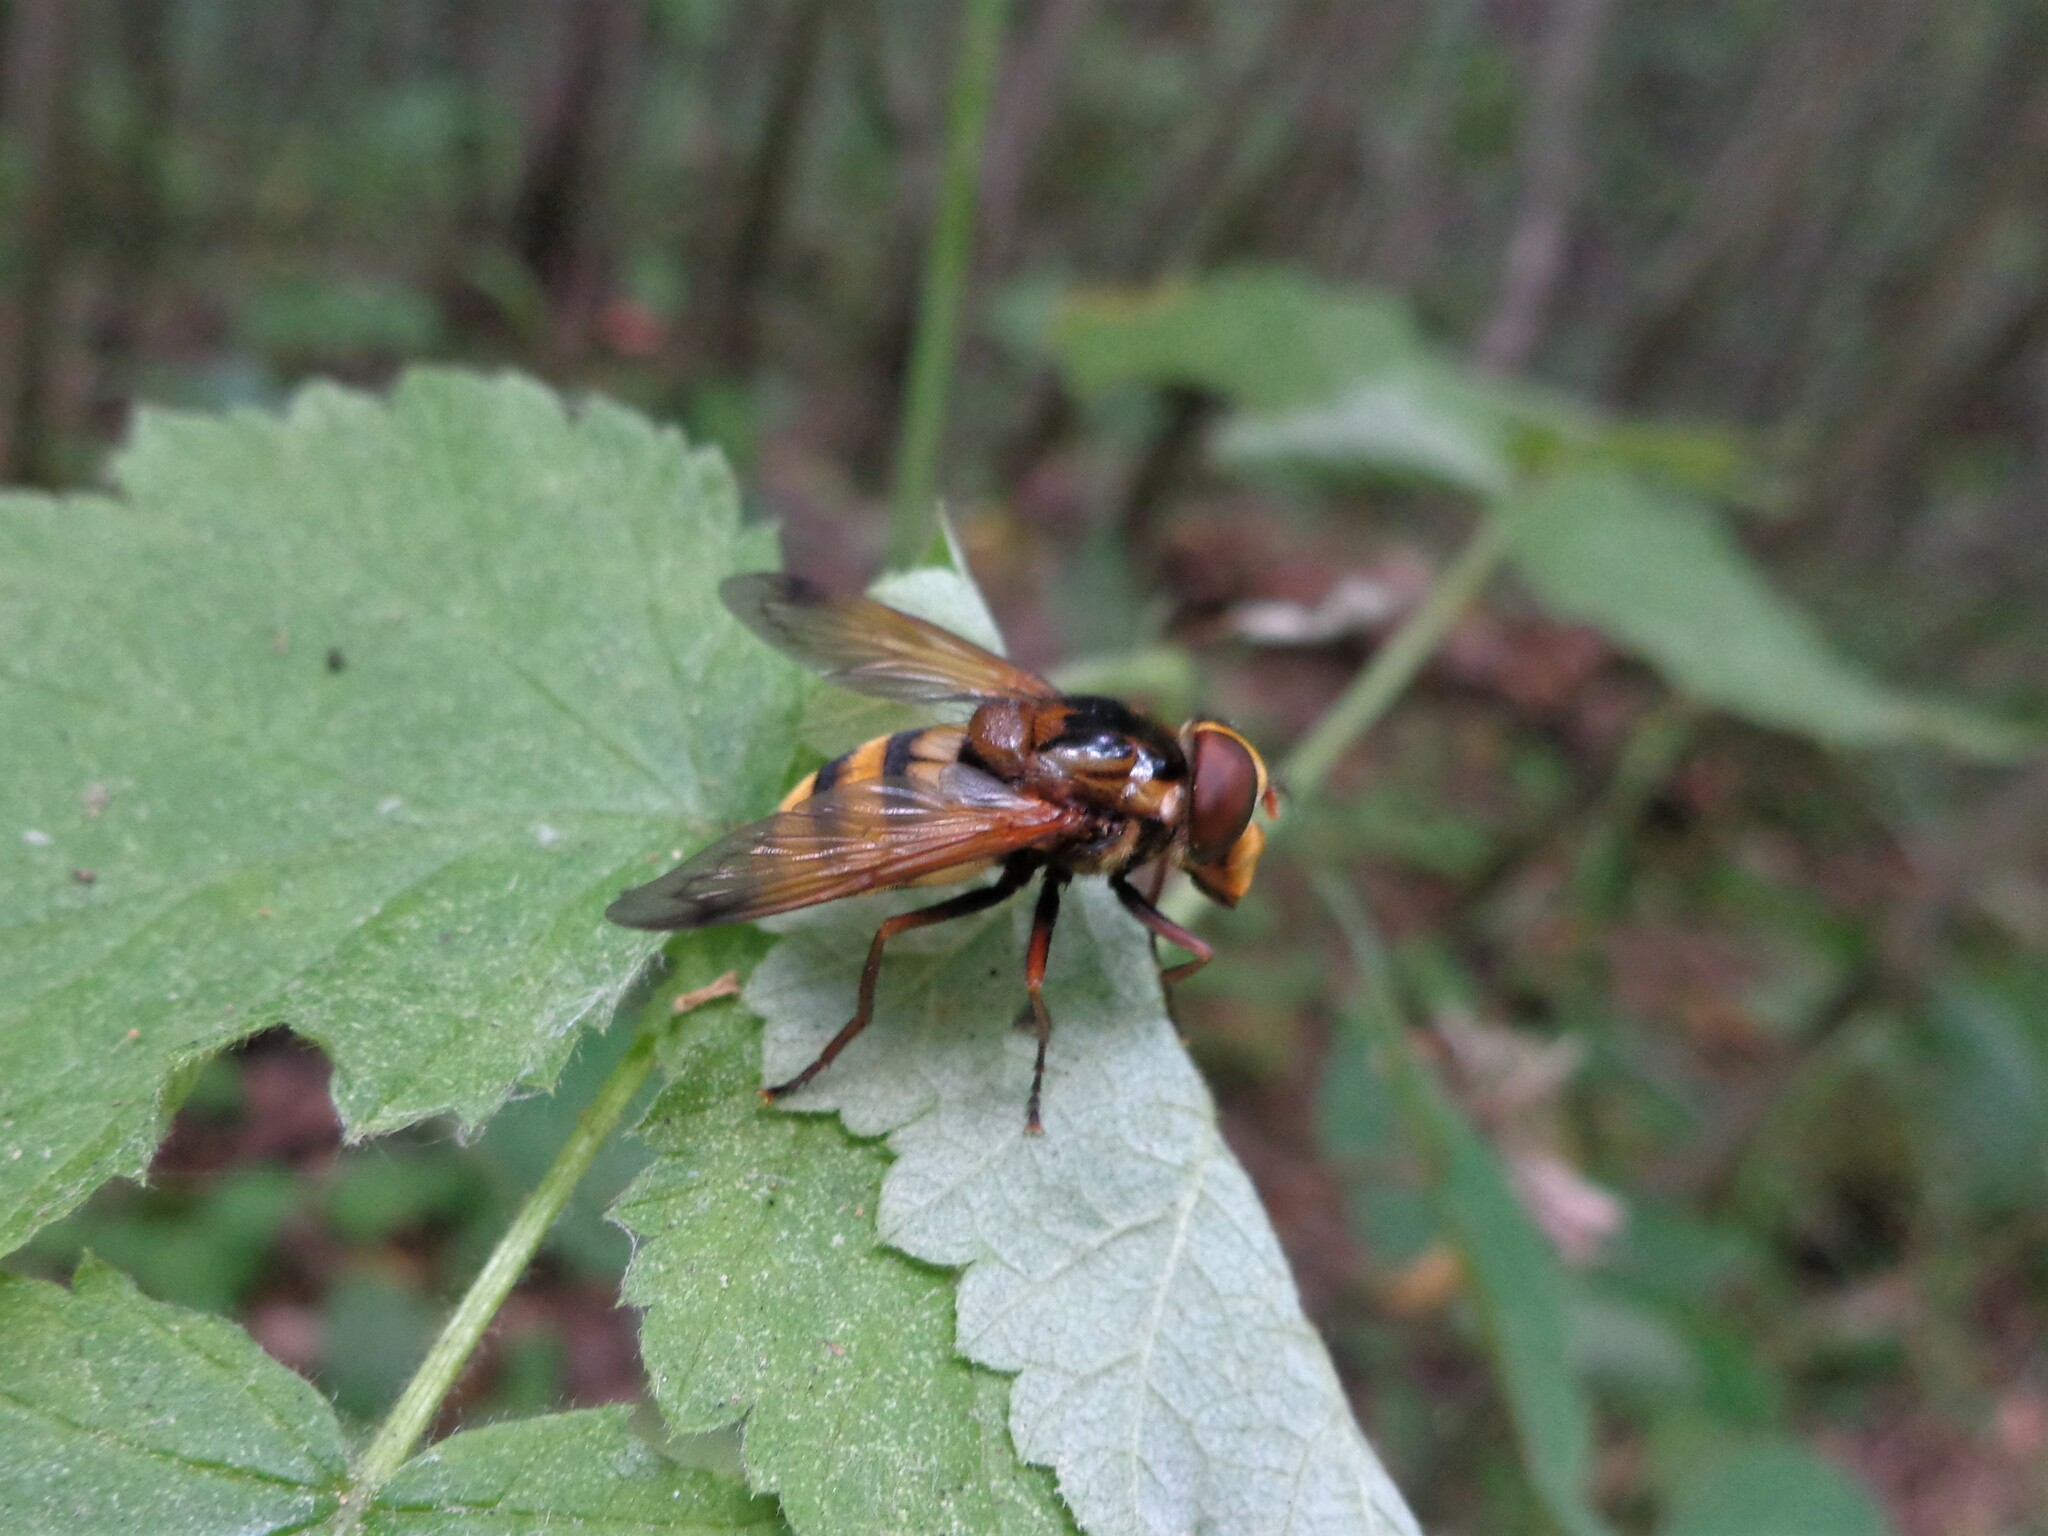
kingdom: Animalia
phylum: Arthropoda
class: Insecta
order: Diptera
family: Syrphidae
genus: Volucella
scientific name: Volucella inanis
